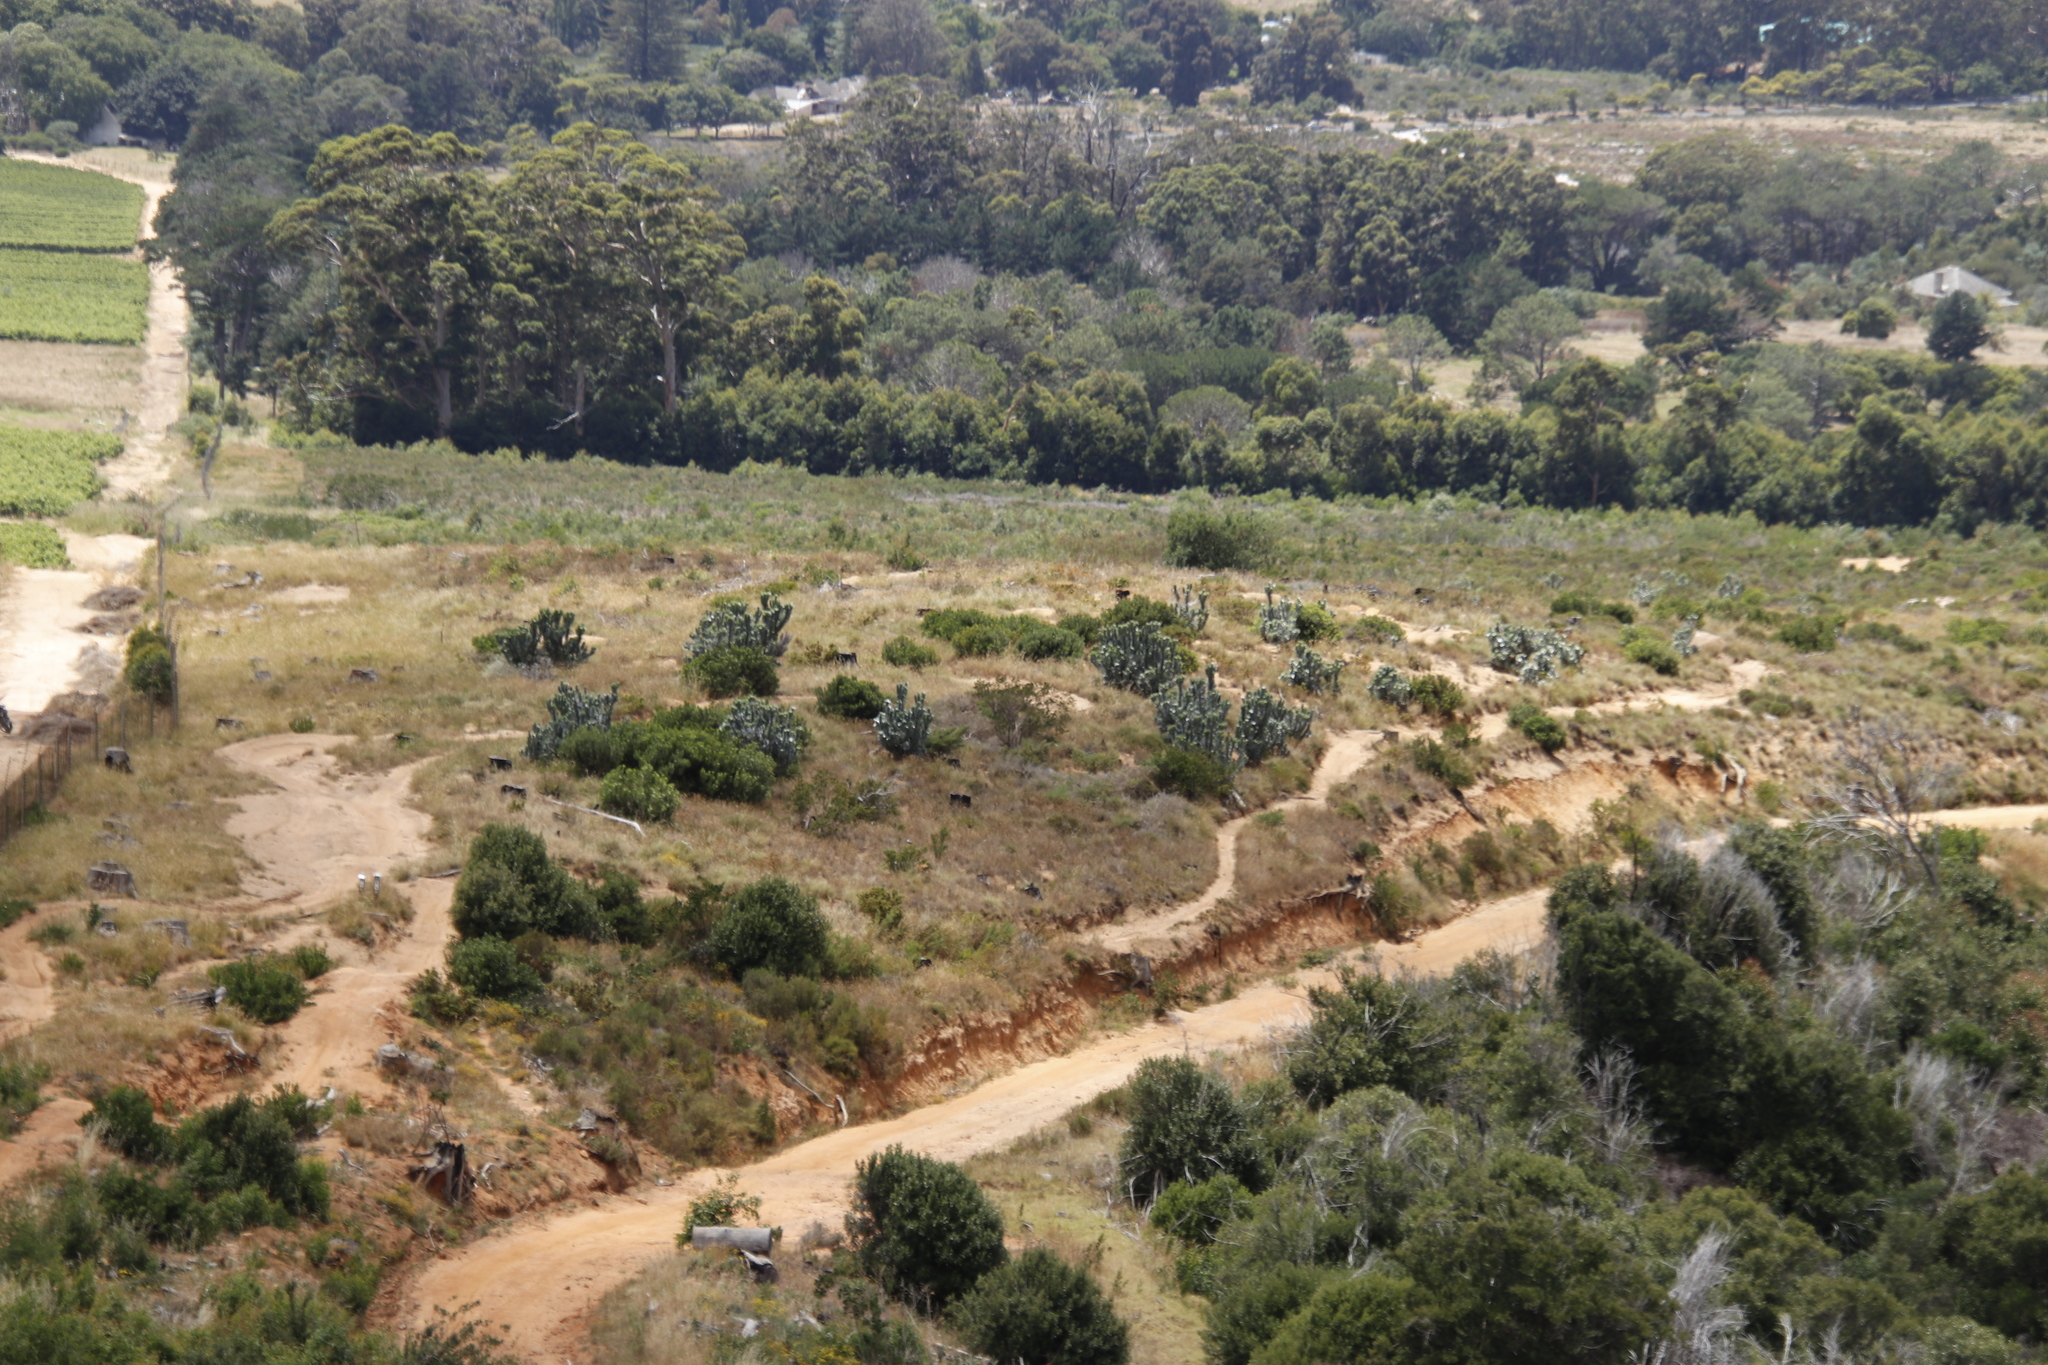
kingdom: Plantae
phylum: Tracheophyta
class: Magnoliopsida
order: Proteales
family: Proteaceae
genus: Leucadendron
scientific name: Leucadendron argenteum
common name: Cape silver tree
